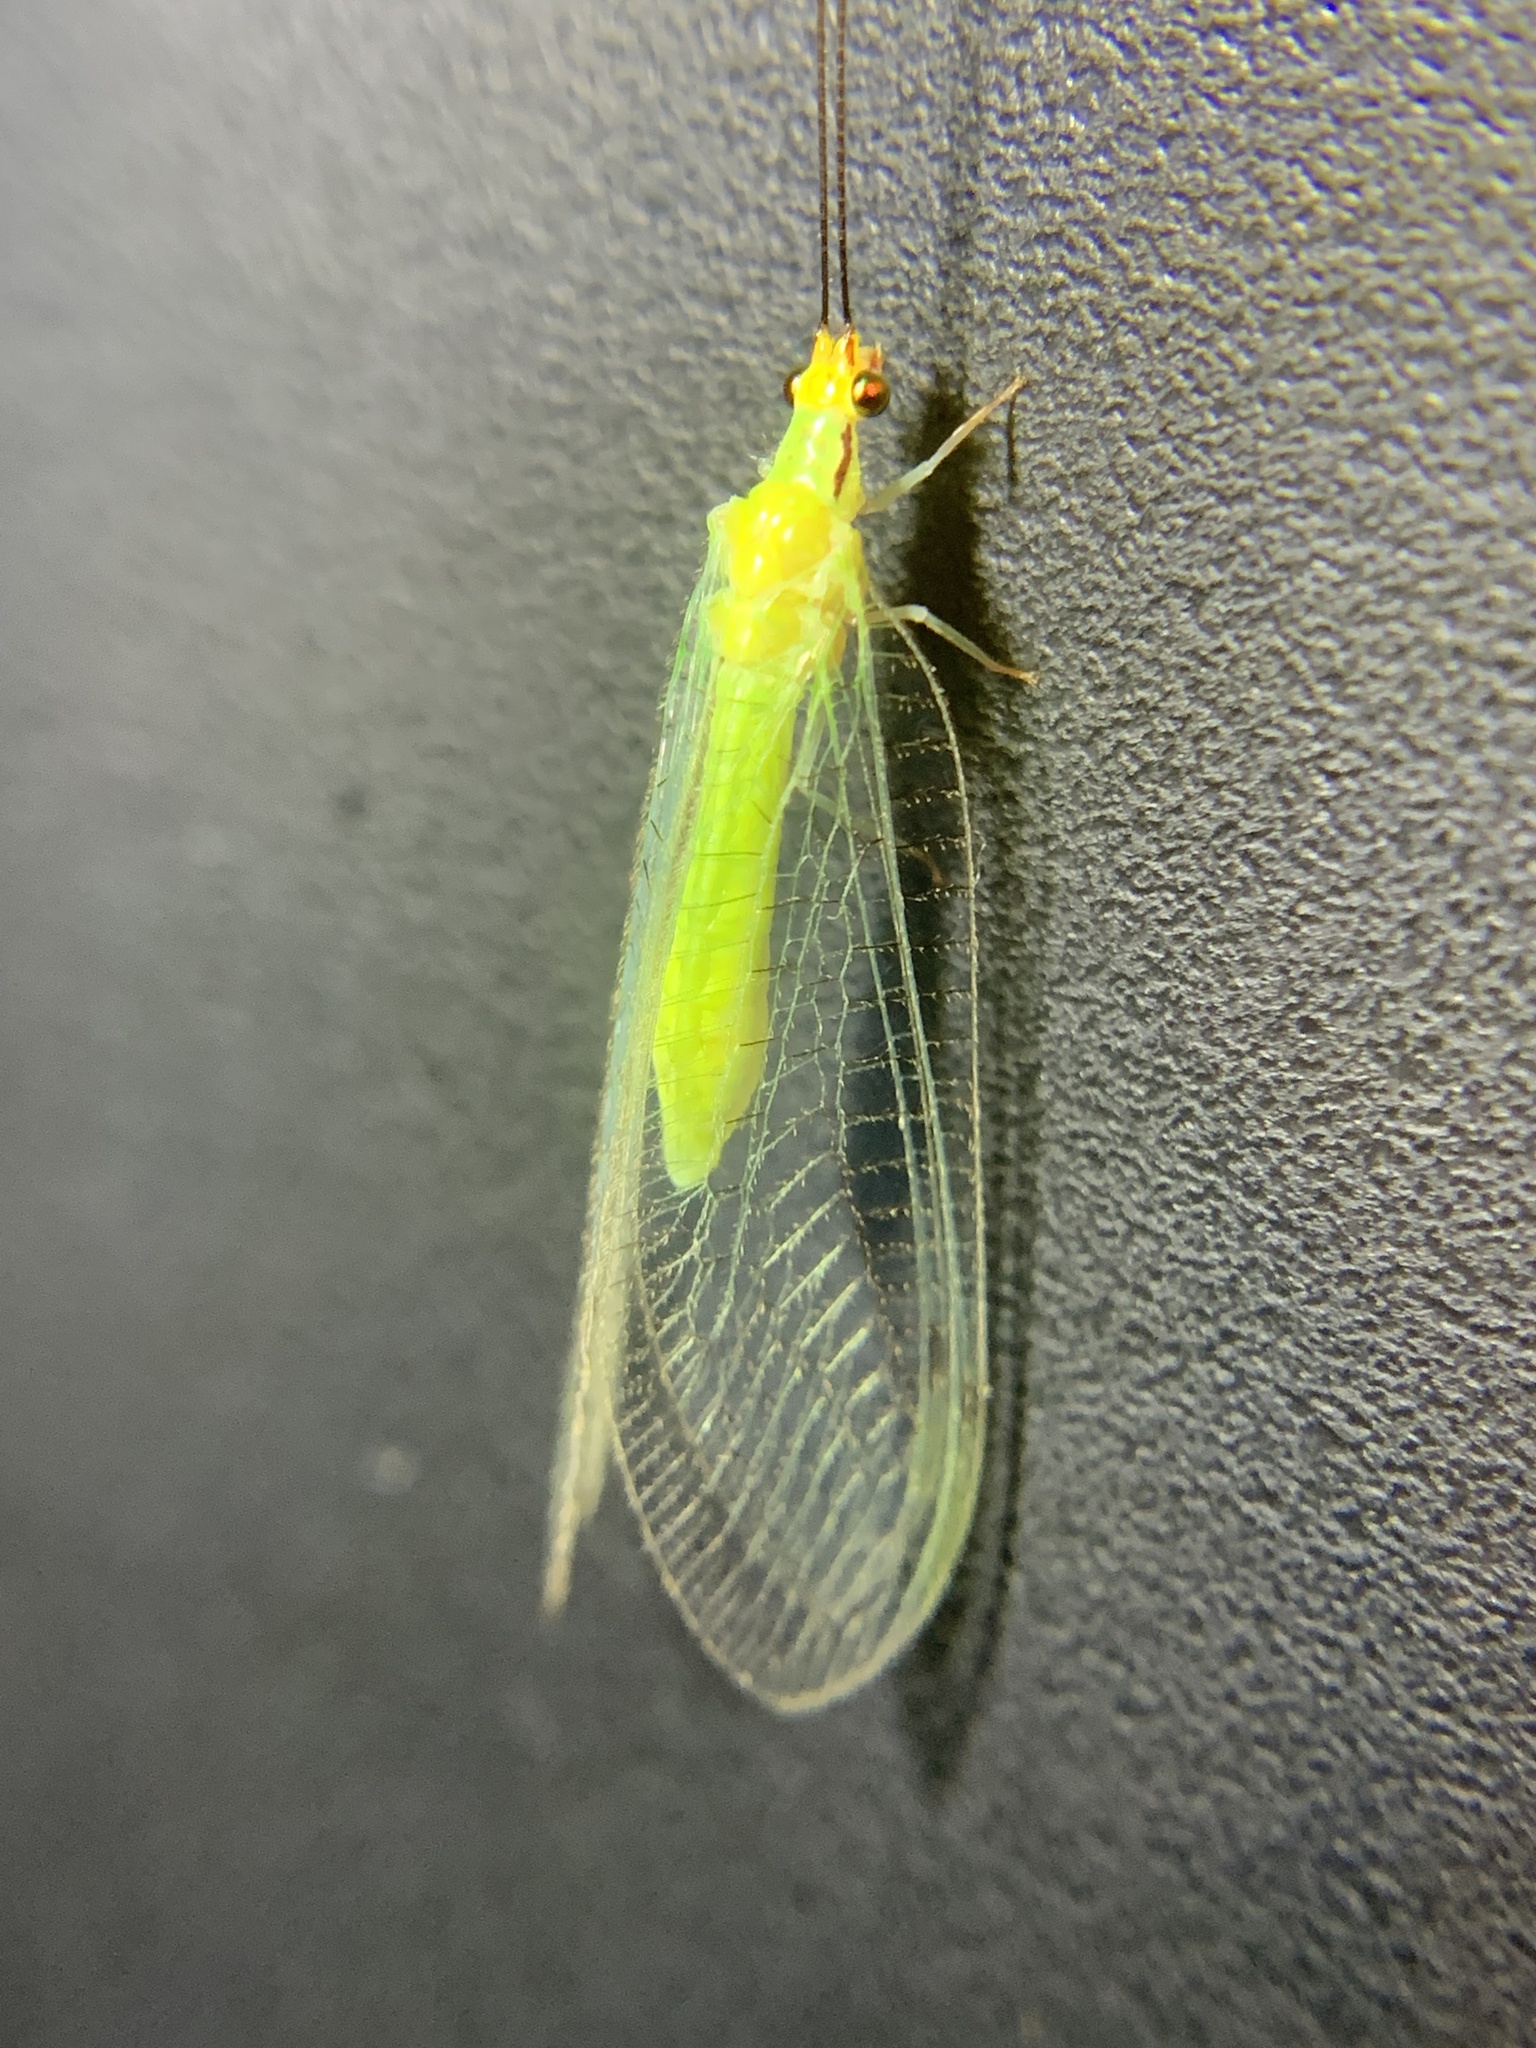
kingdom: Animalia
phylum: Arthropoda
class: Insecta
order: Neuroptera
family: Chrysopidae
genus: Leucochrysa
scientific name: Leucochrysa pavida
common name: Lichen-carrying green lacewing
